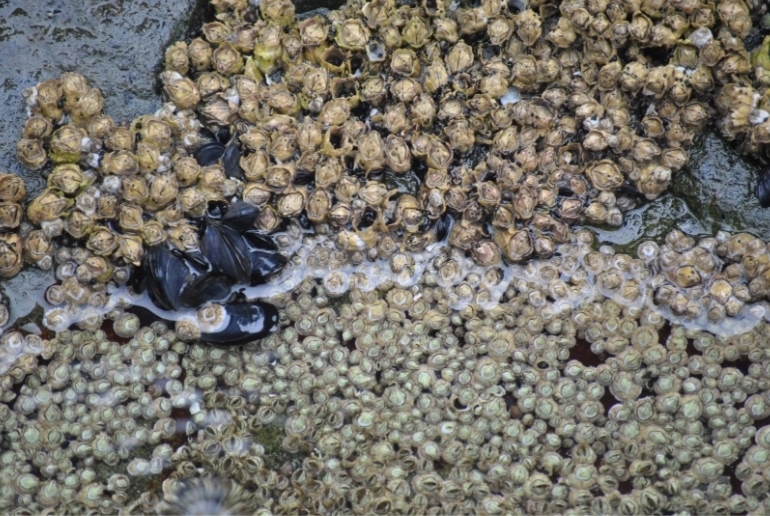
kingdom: Animalia
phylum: Arthropoda
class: Maxillopoda
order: Sessilia
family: Archaeobalanidae
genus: Semibalanus
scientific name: Semibalanus balanoides
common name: Acorn barnacle
